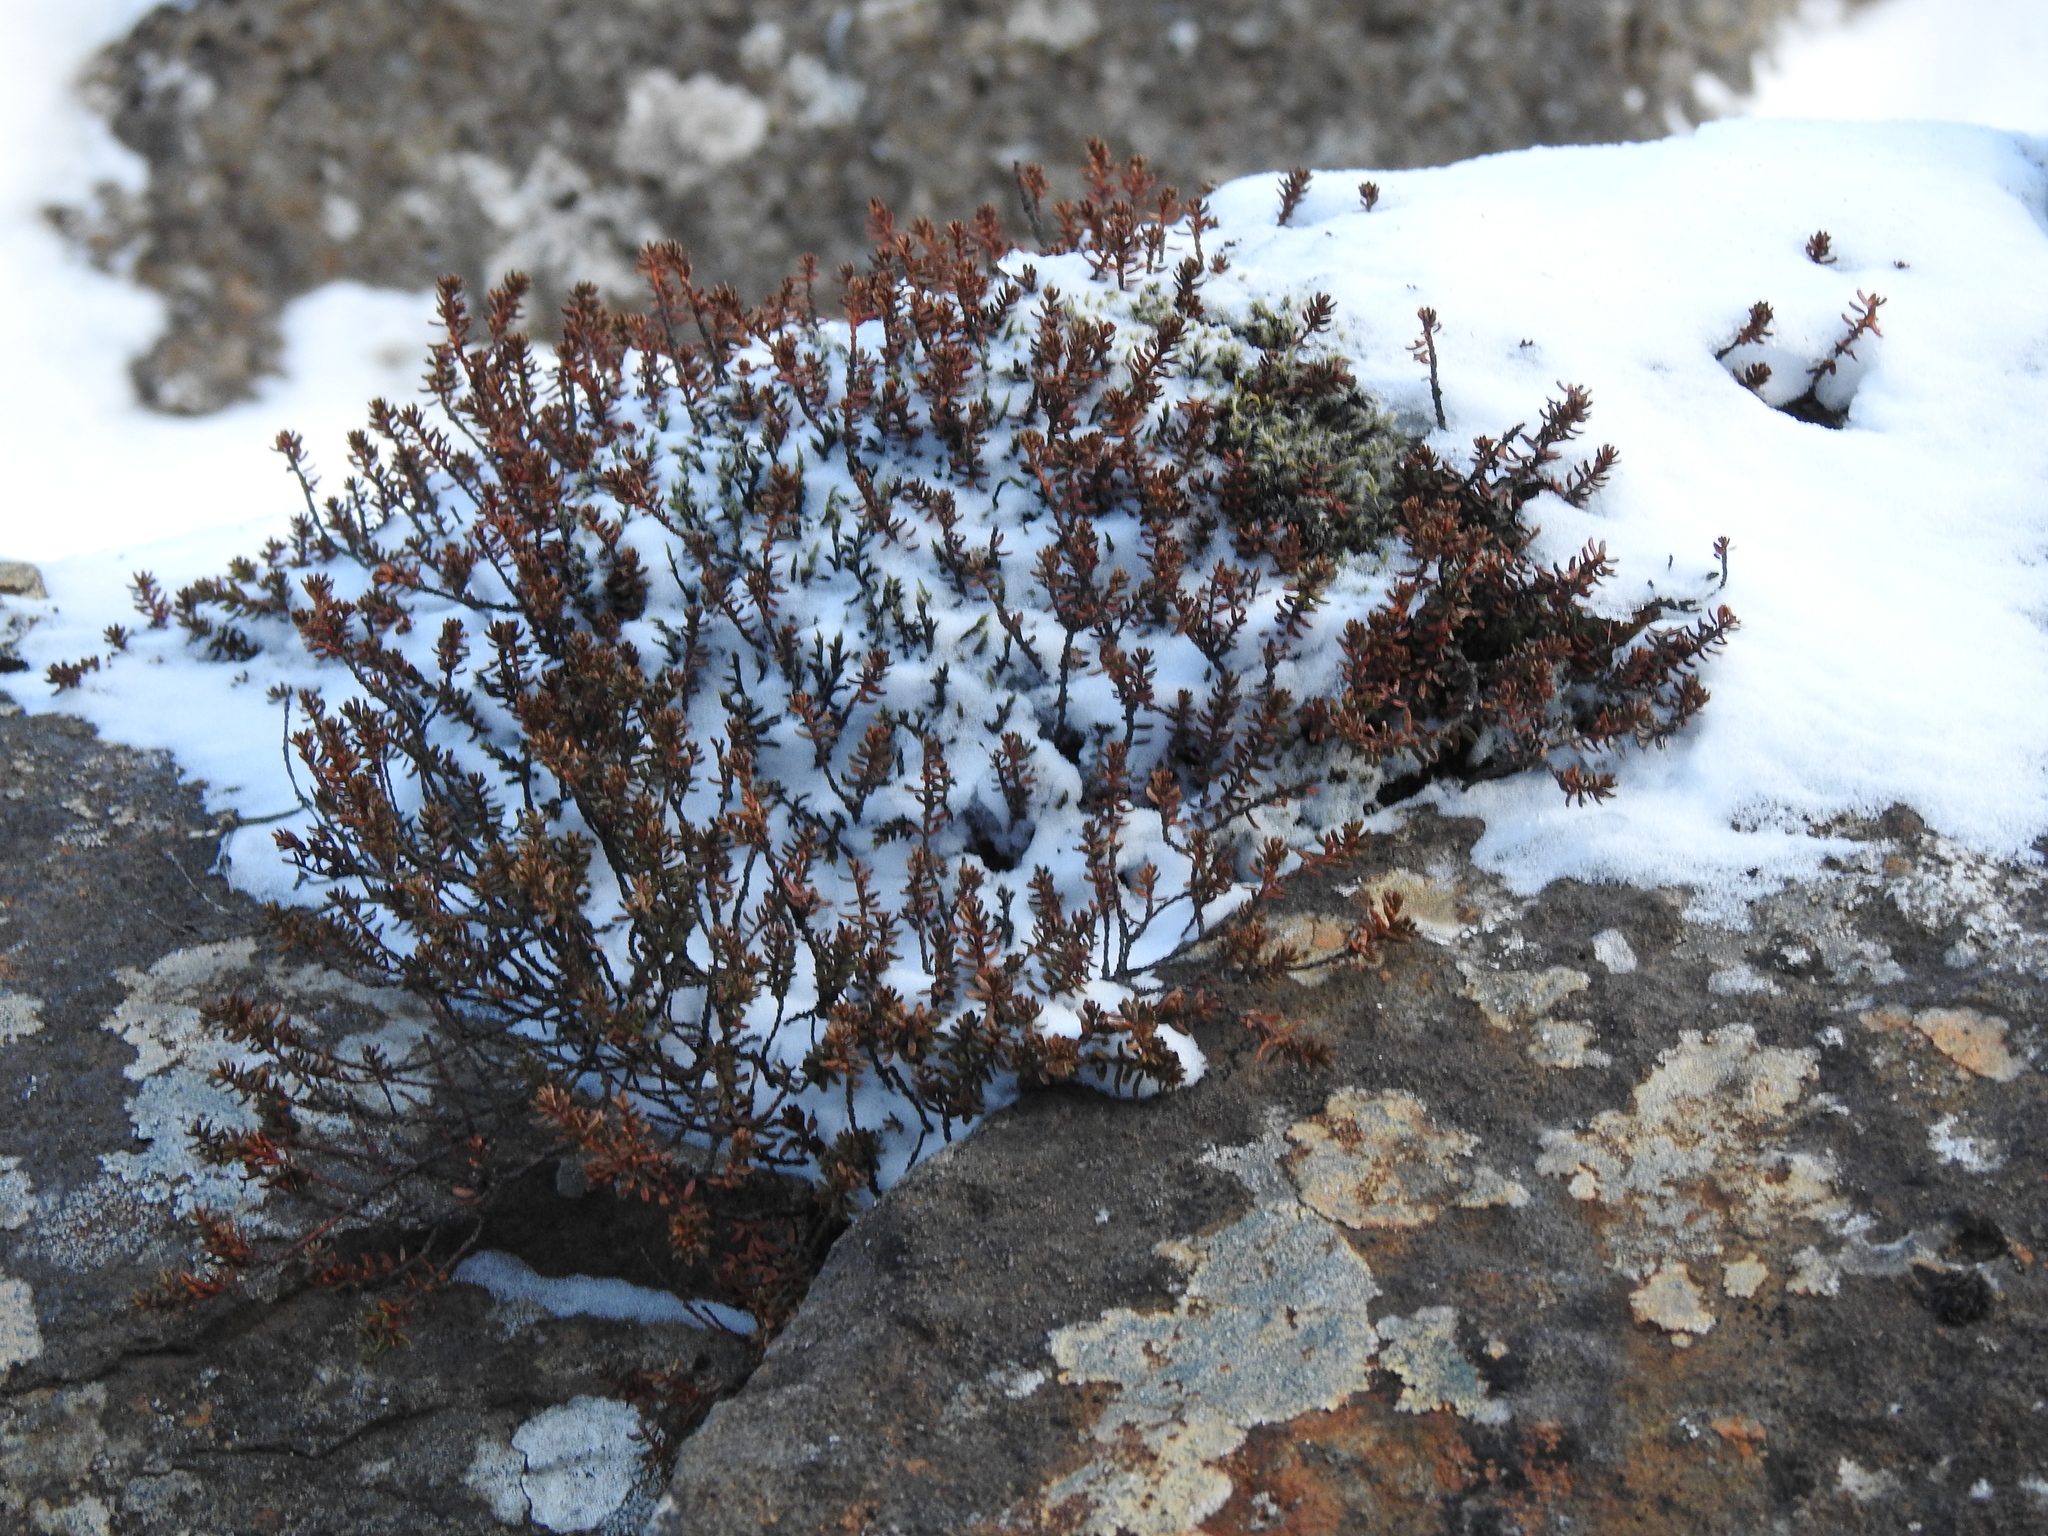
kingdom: Plantae
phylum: Tracheophyta
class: Magnoliopsida
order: Ericales
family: Ericaceae
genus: Empetrum
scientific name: Empetrum nigrum
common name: Black crowberry
